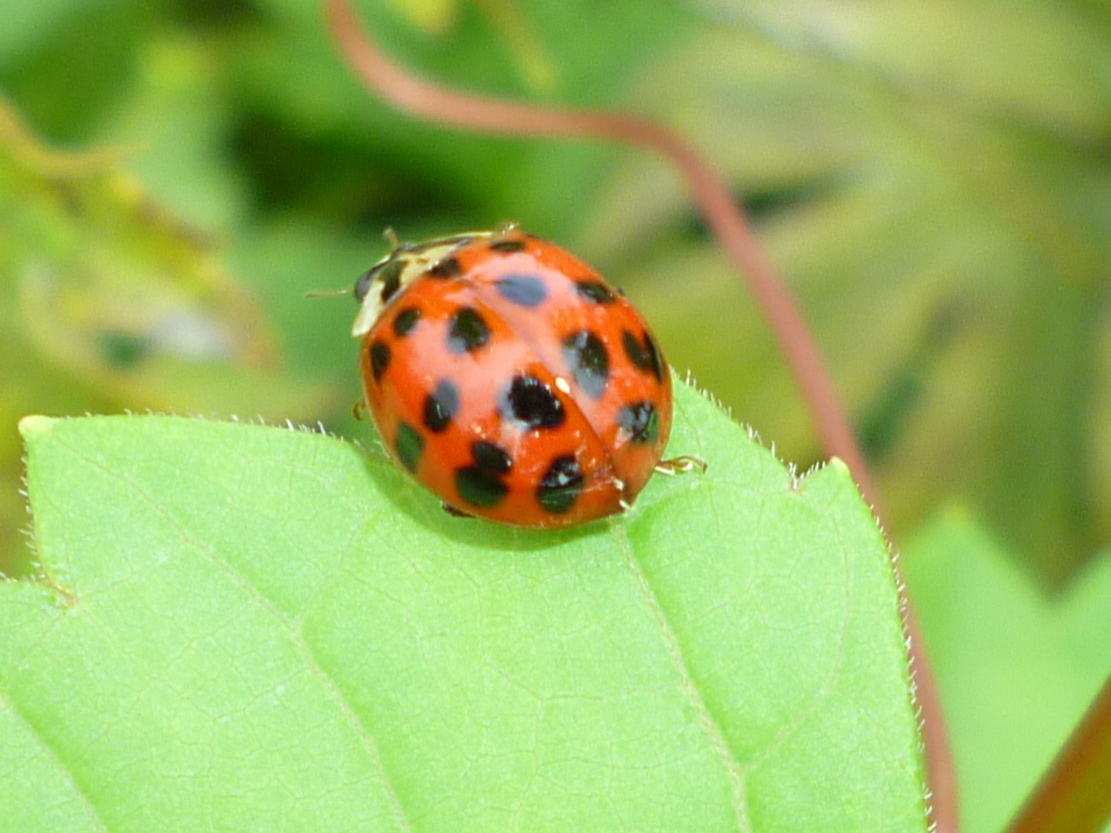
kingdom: Animalia
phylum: Arthropoda
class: Insecta
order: Coleoptera
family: Coccinellidae
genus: Harmonia
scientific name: Harmonia axyridis
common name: Harlequin ladybird
